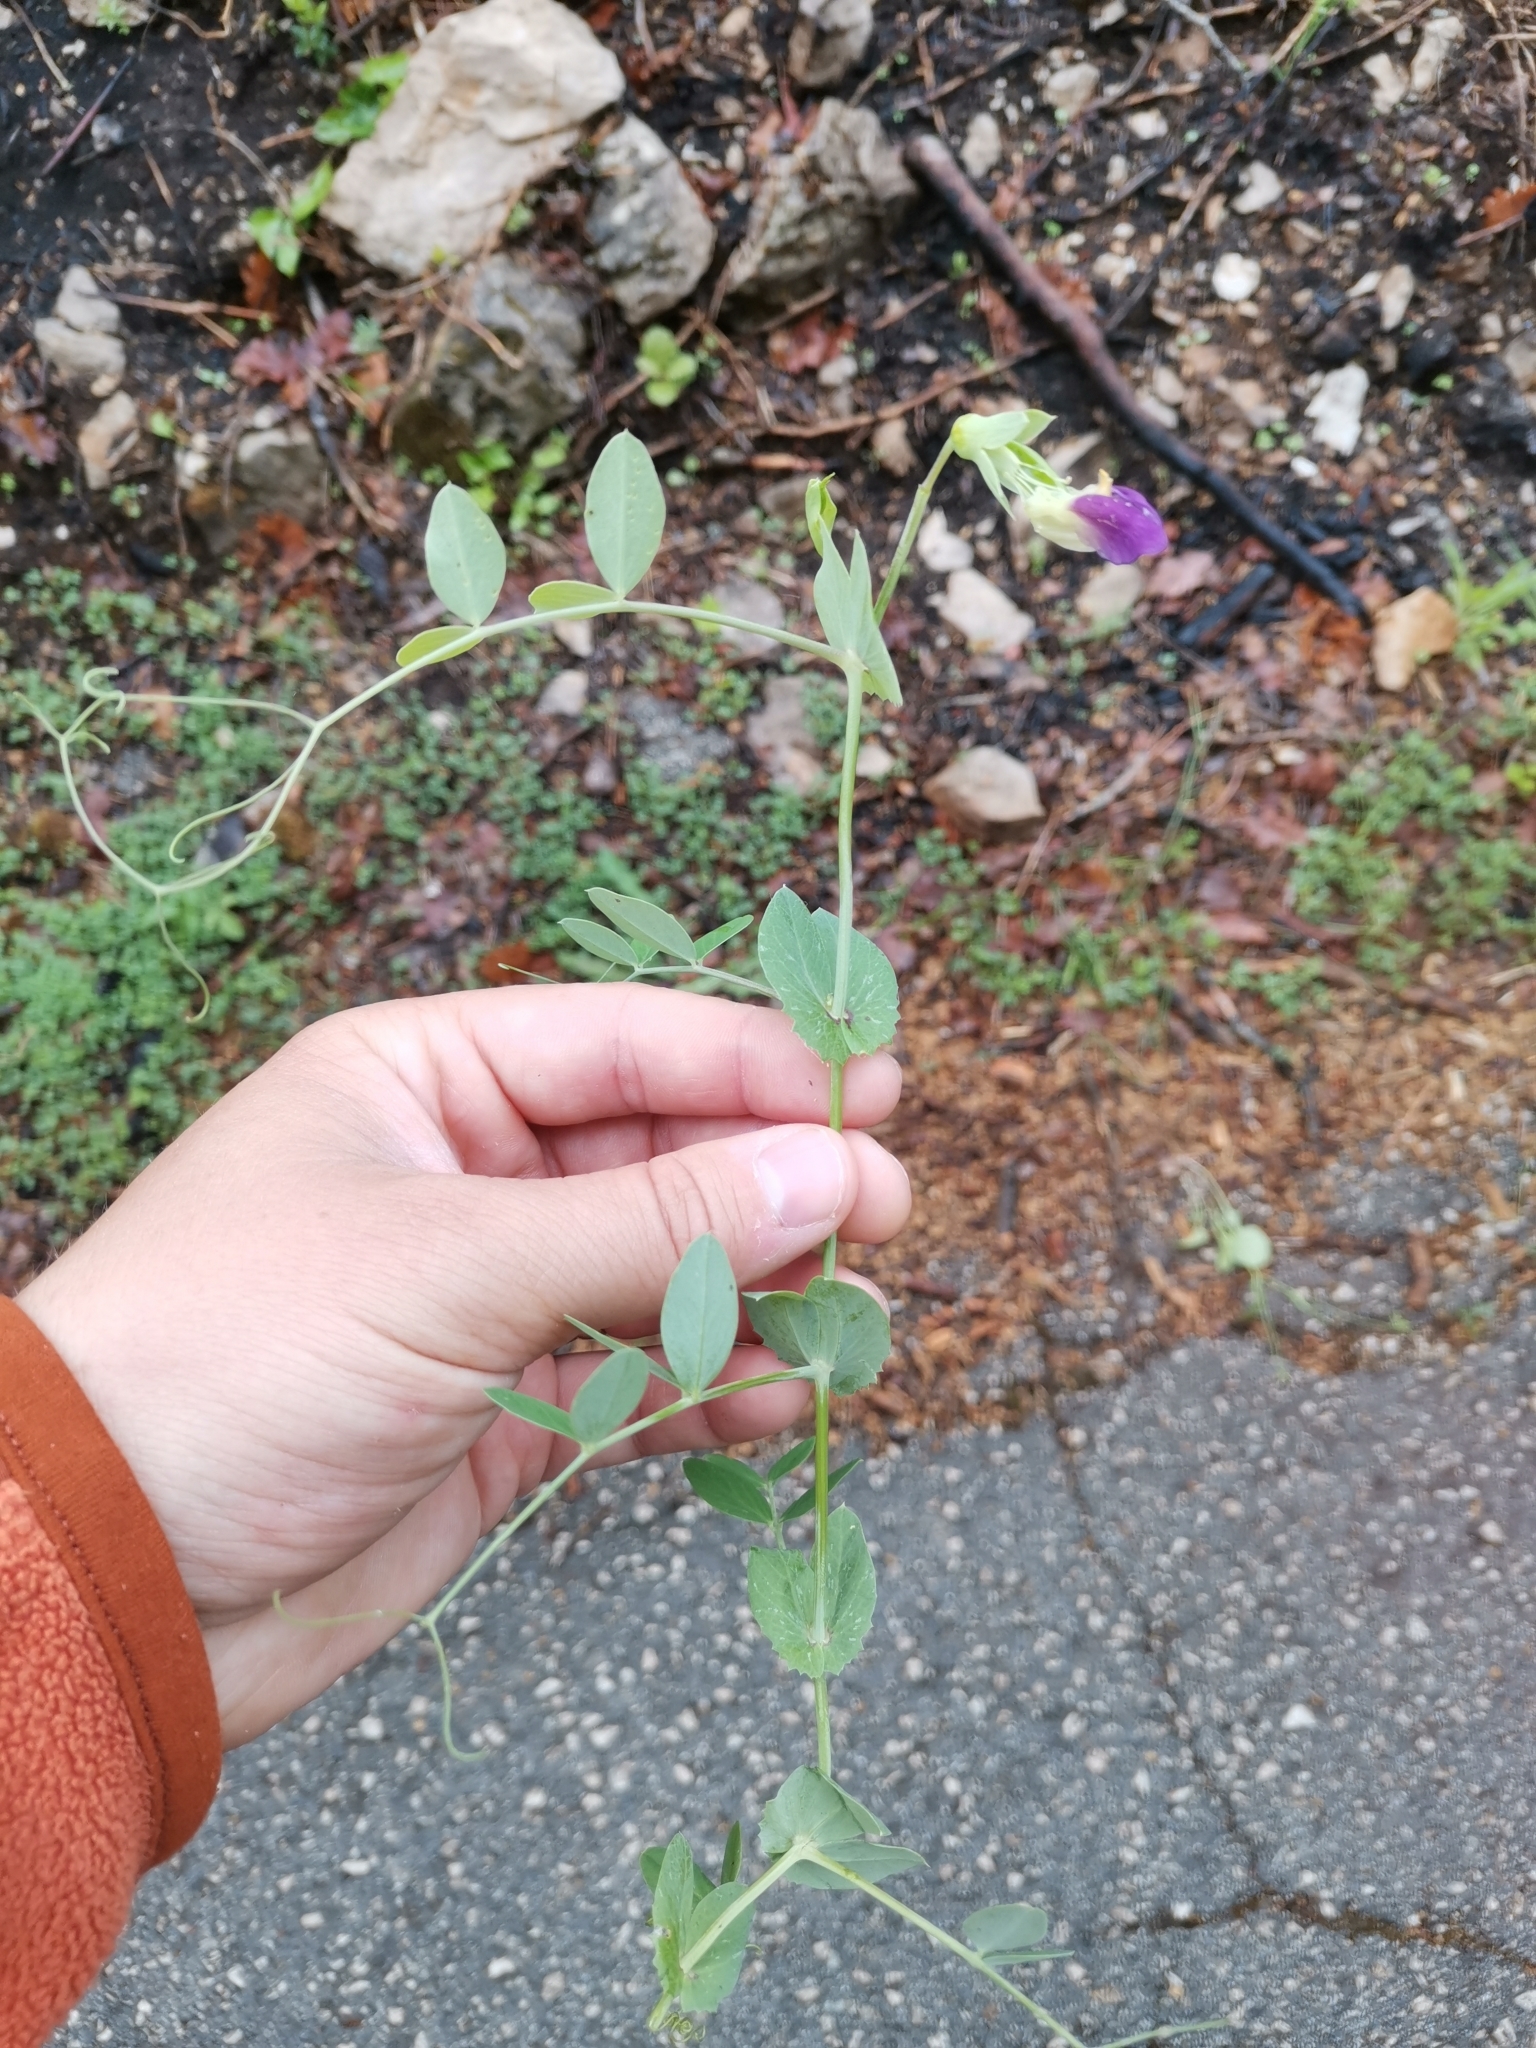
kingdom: Plantae
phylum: Tracheophyta
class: Magnoliopsida
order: Fabales
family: Fabaceae
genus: Lathyrus
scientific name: Lathyrus oleraceus
